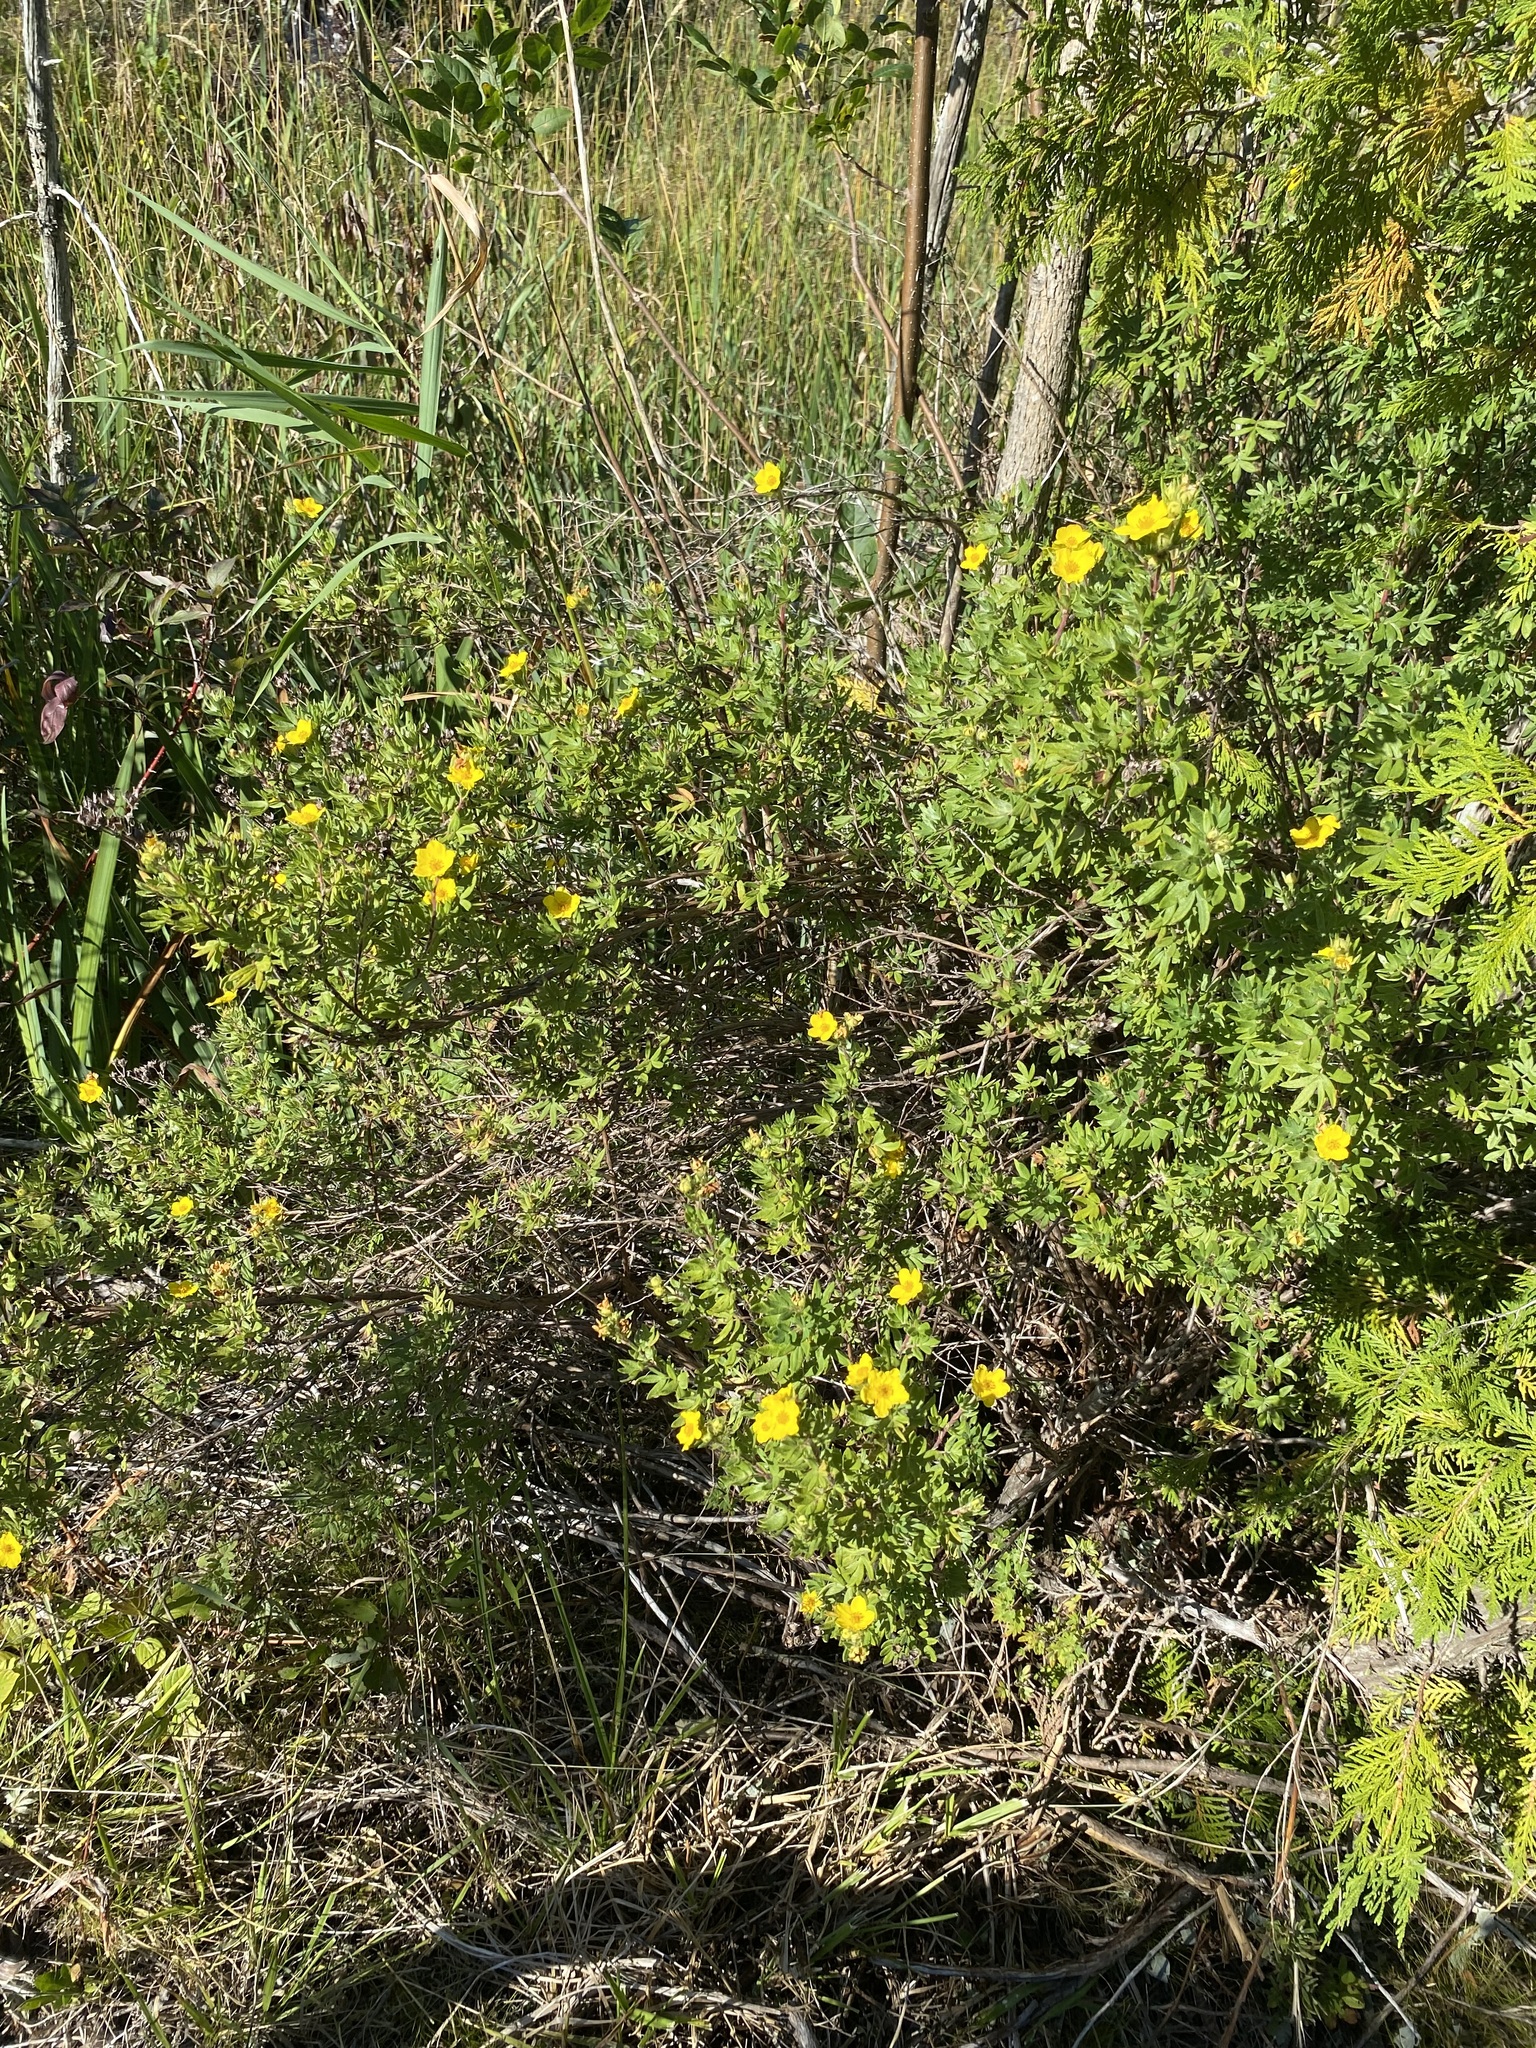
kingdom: Plantae
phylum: Tracheophyta
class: Magnoliopsida
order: Rosales
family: Rosaceae
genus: Dasiphora
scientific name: Dasiphora fruticosa
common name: Shrubby cinquefoil
